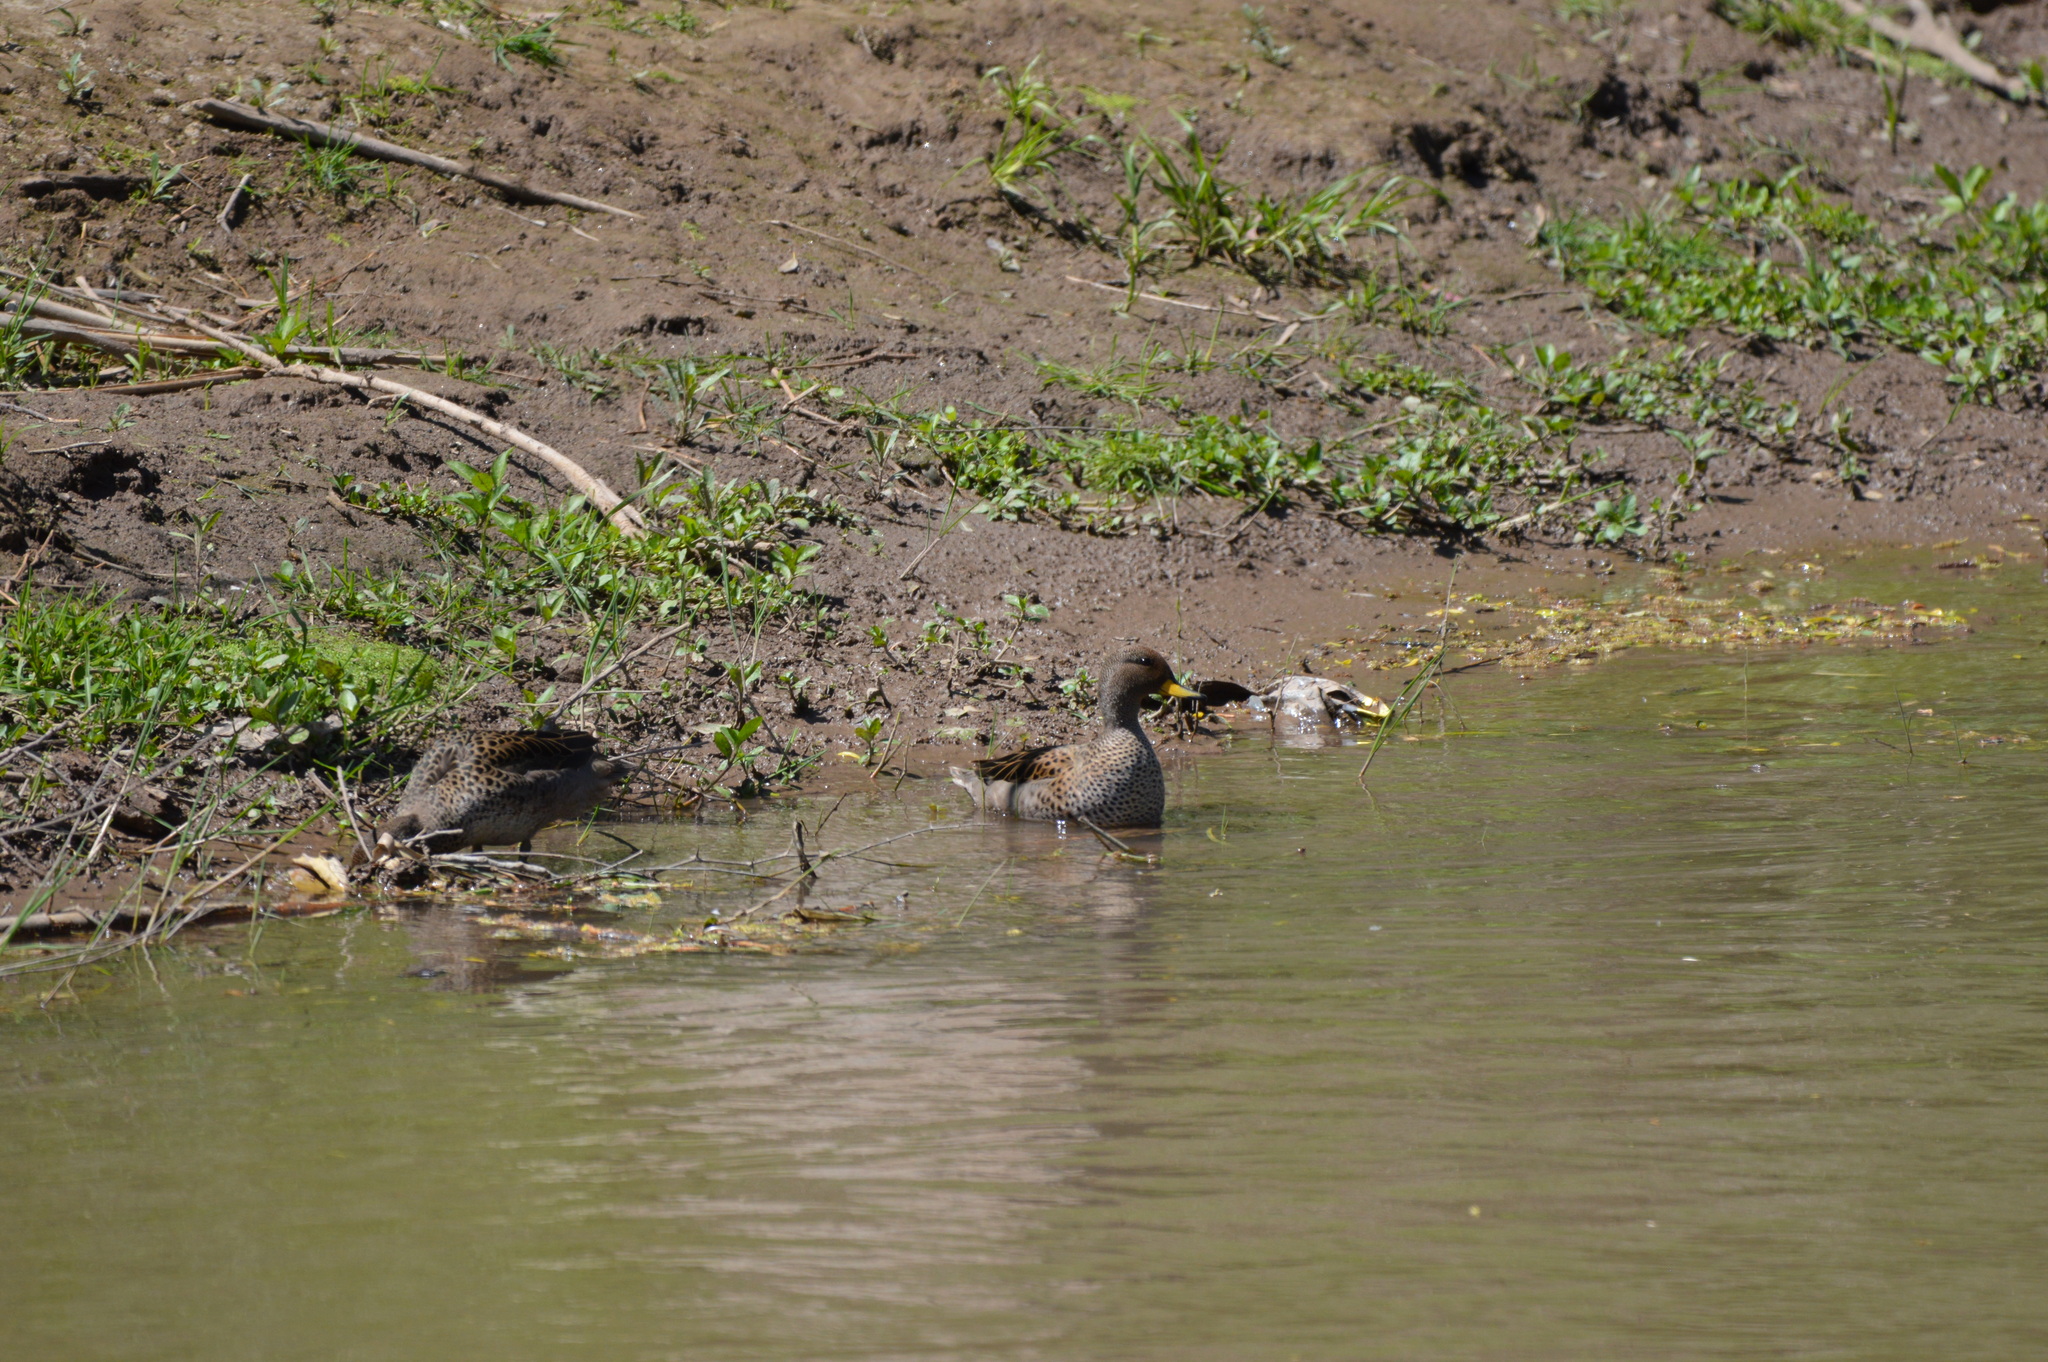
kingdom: Animalia
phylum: Chordata
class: Aves
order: Anseriformes
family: Anatidae
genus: Anas
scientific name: Anas flavirostris
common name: Yellow-billed teal
